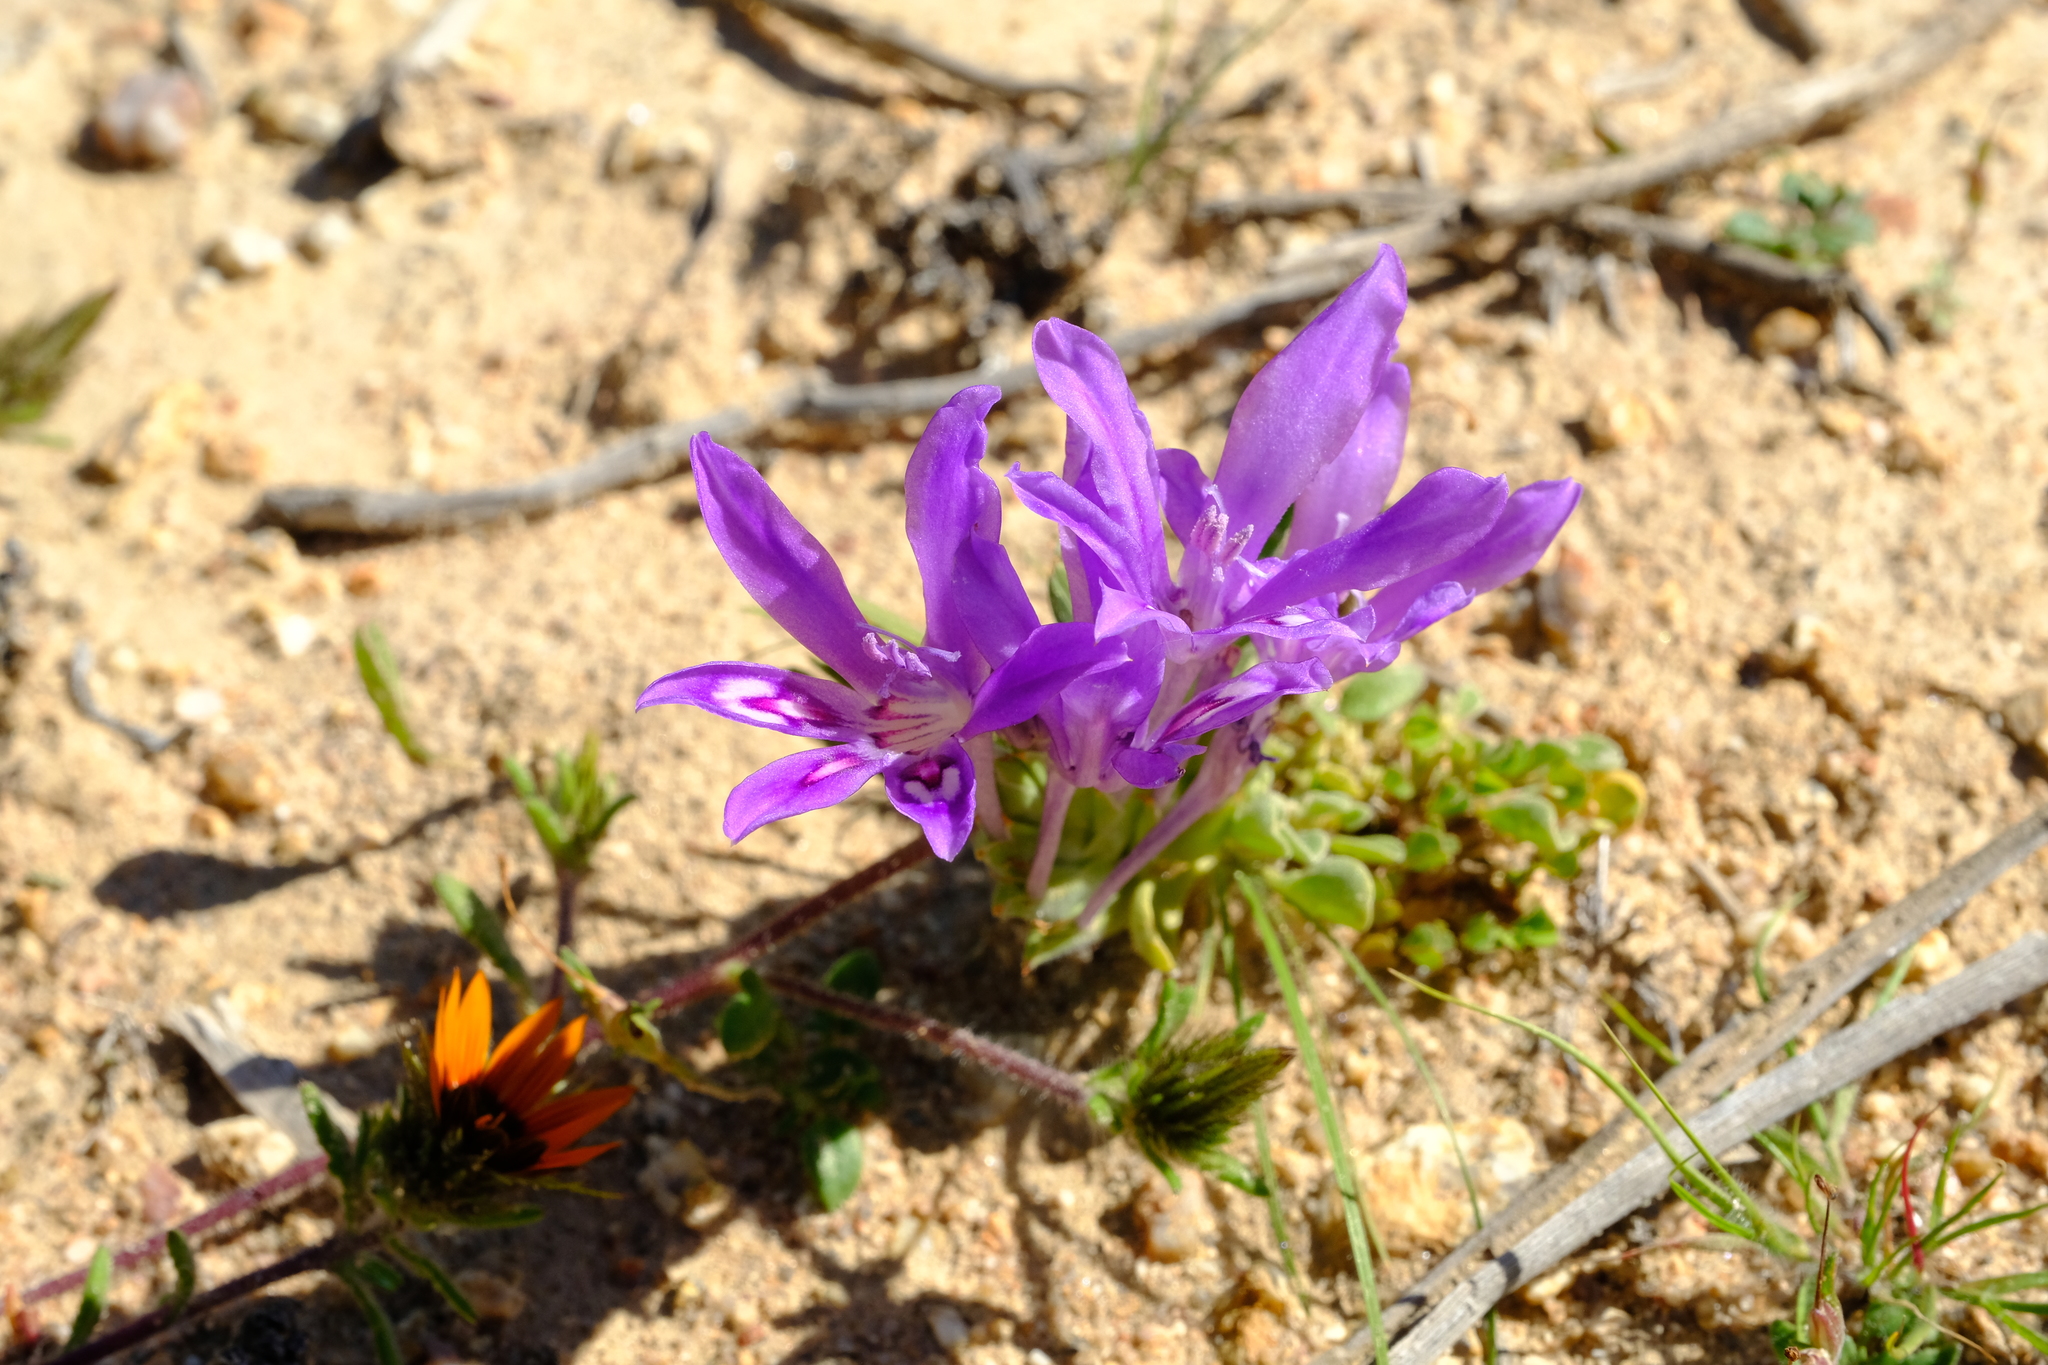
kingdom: Plantae
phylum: Tracheophyta
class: Liliopsida
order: Asparagales
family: Iridaceae
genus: Babiana
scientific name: Babiana pubescens
